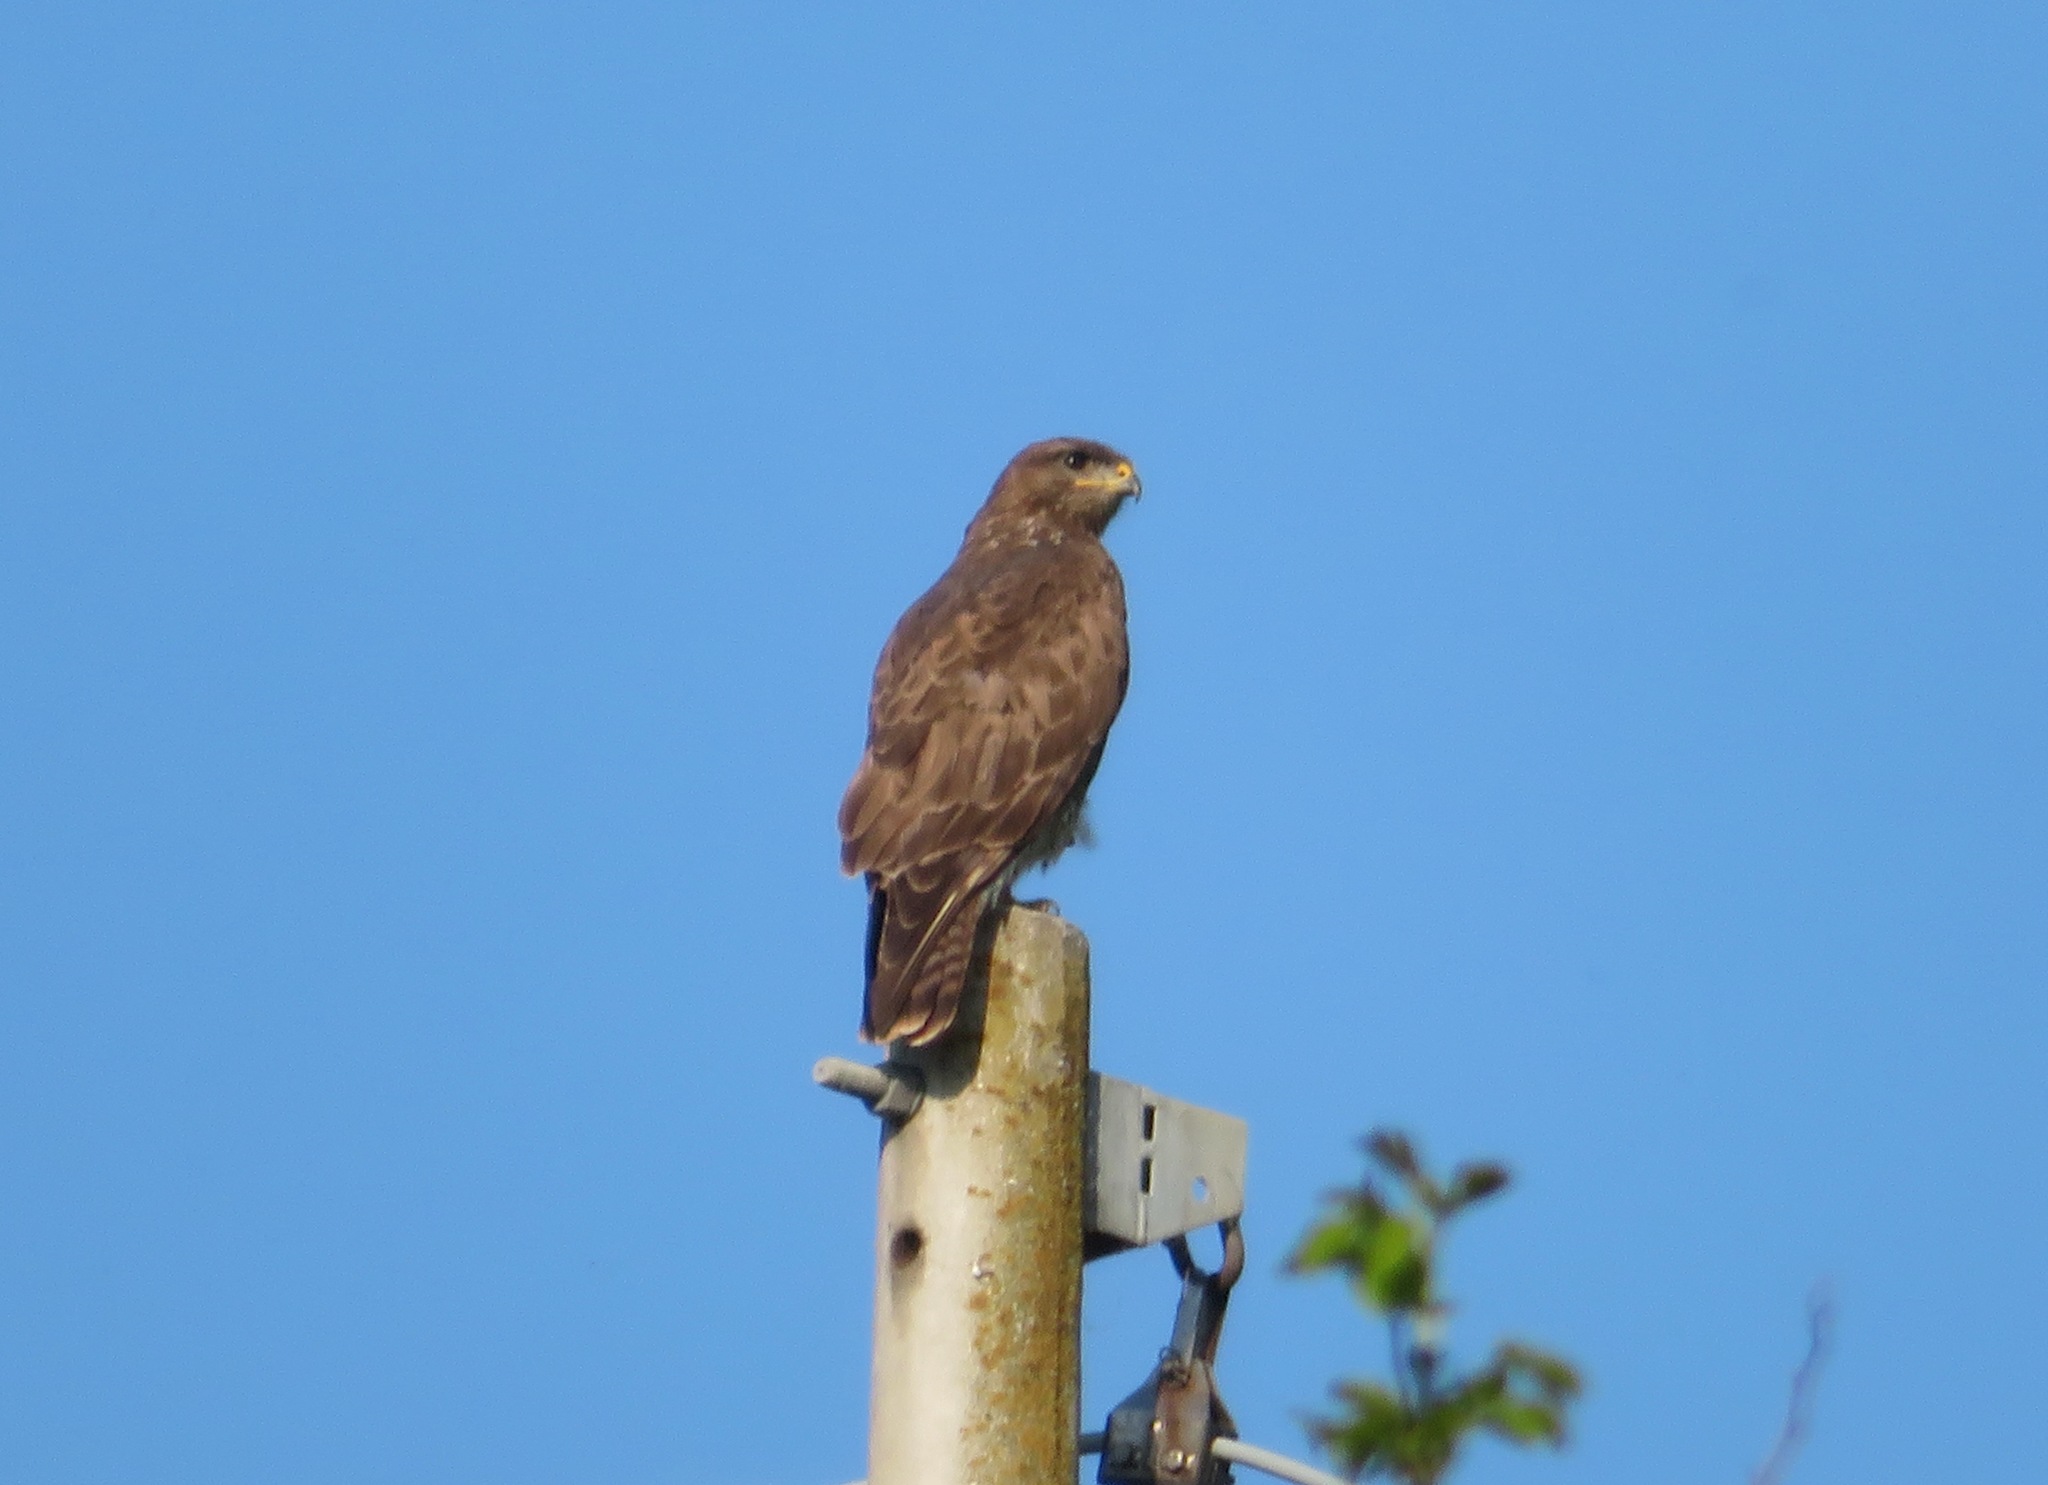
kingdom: Animalia
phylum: Chordata
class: Aves
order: Accipitriformes
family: Accipitridae
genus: Buteo
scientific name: Buteo buteo
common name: Common buzzard
